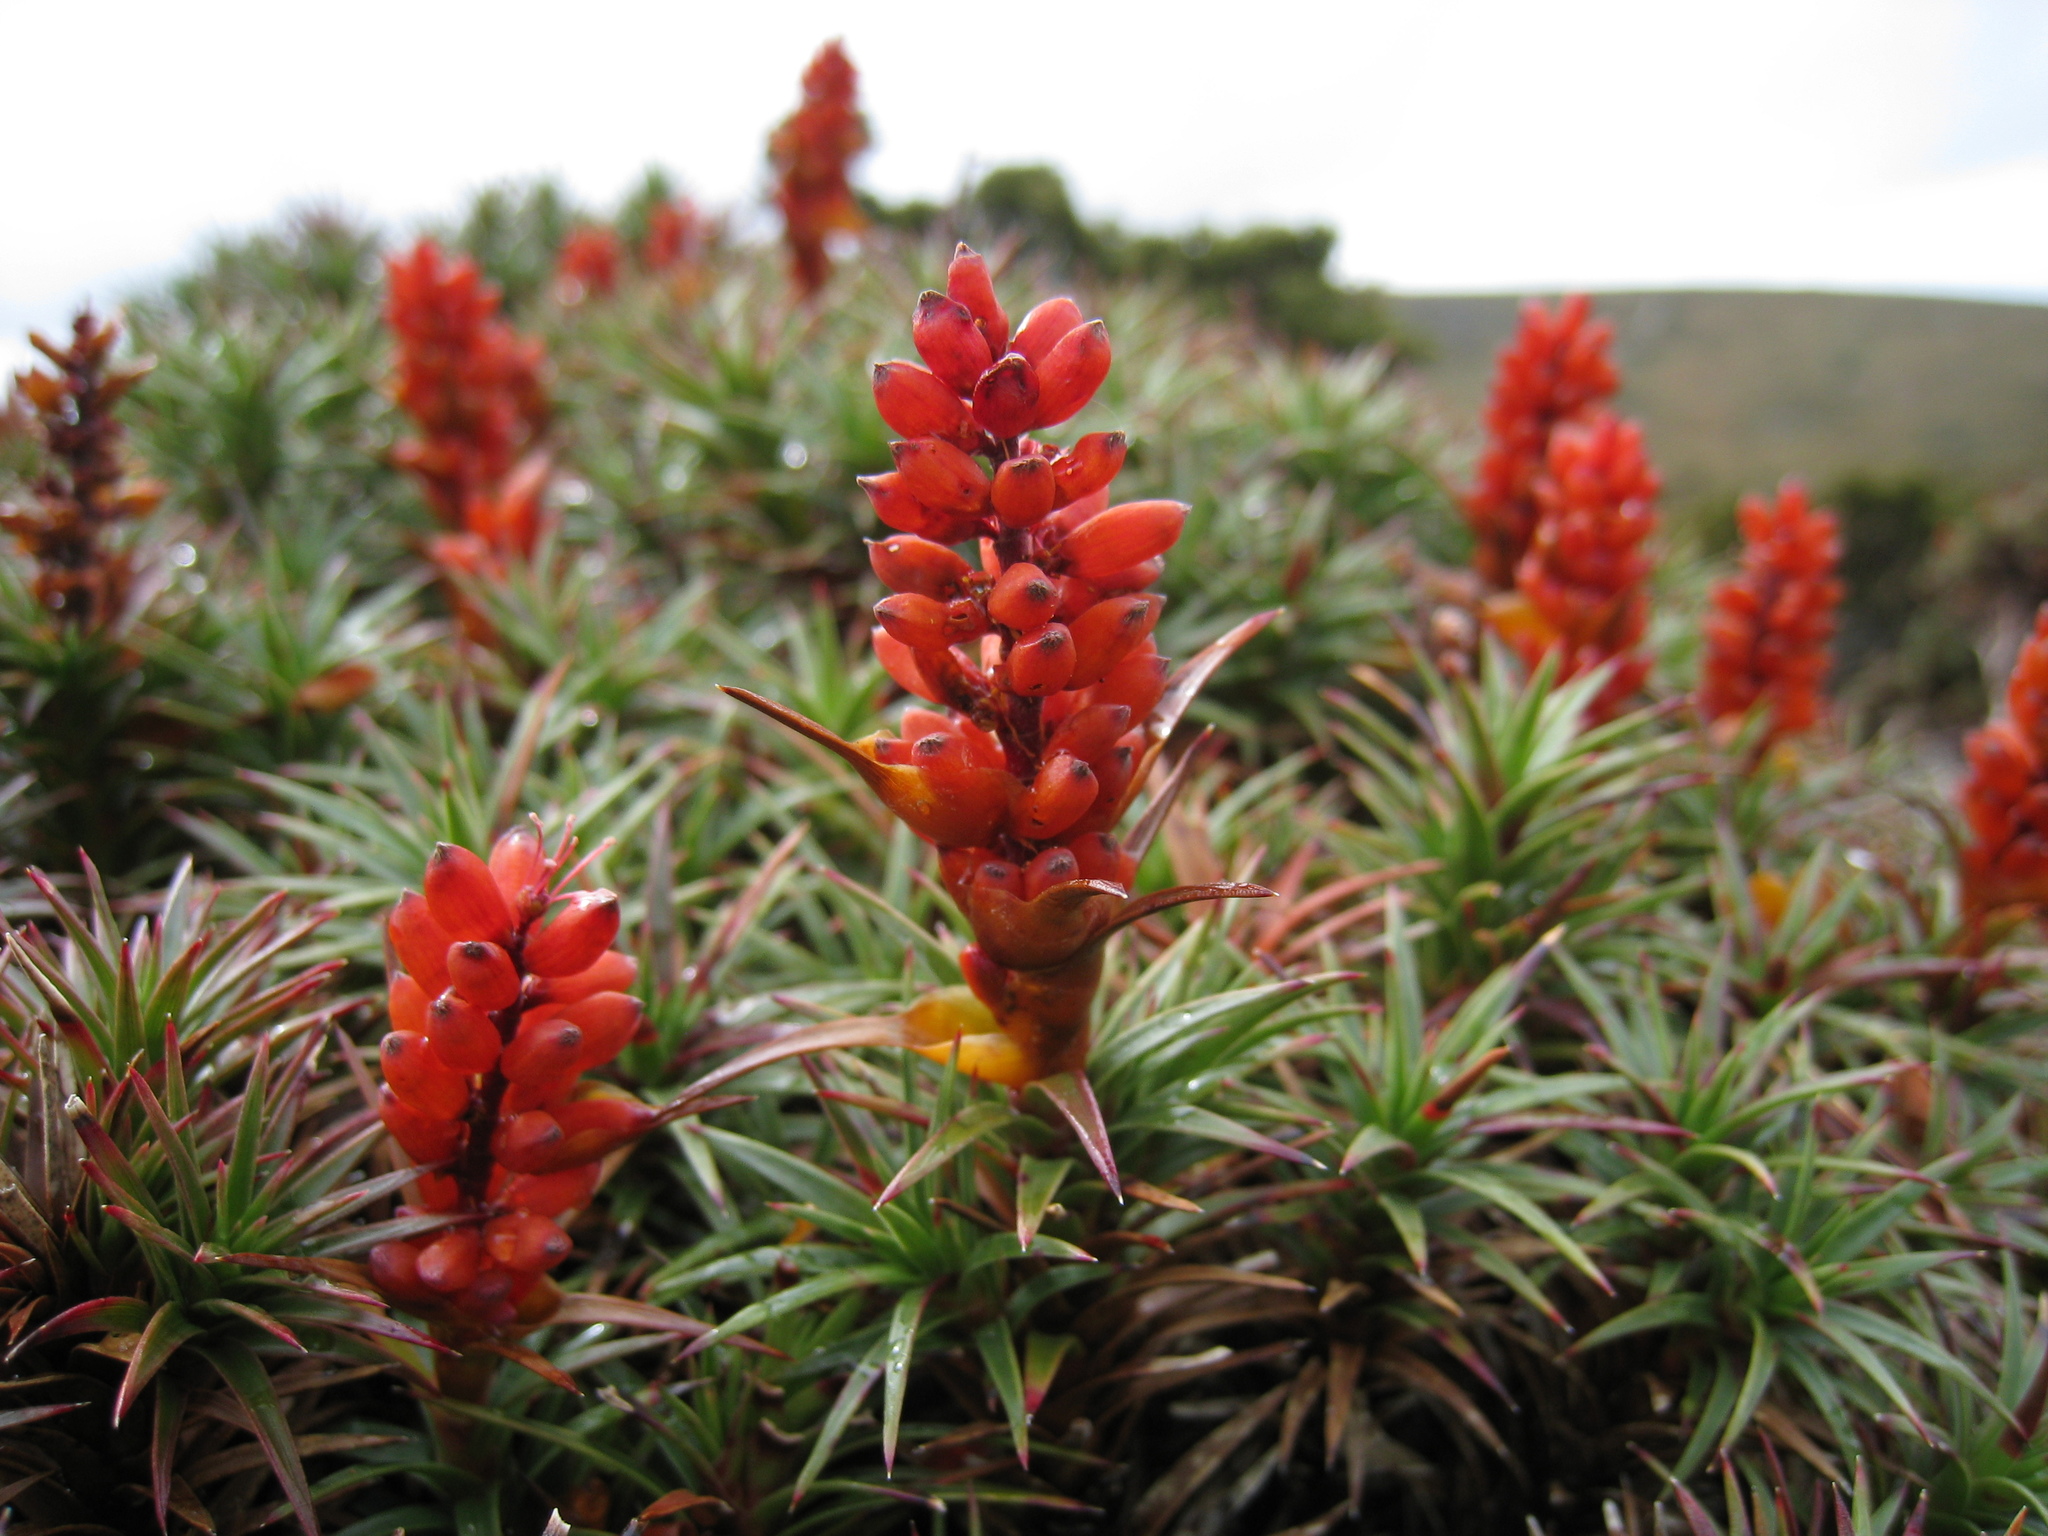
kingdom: Plantae
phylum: Tracheophyta
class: Magnoliopsida
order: Ericales
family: Ericaceae
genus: Dracophyllum
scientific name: Dracophyllum persistentifolium
